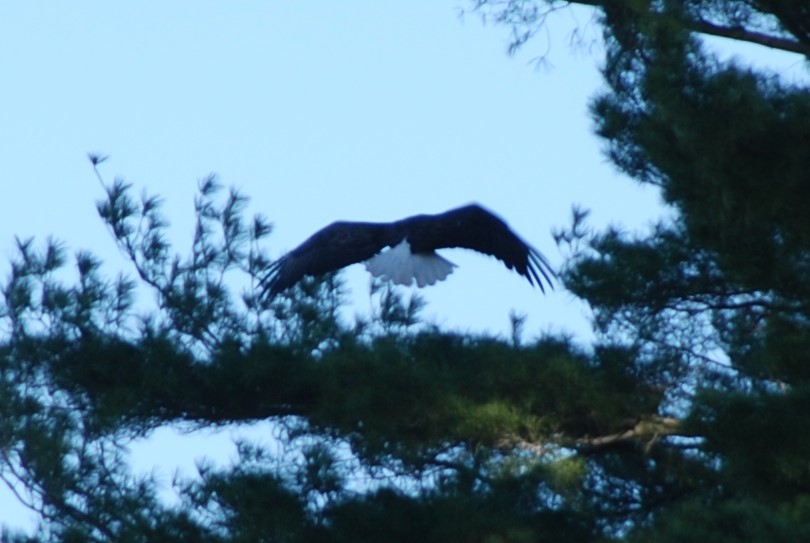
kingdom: Animalia
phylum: Chordata
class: Aves
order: Accipitriformes
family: Accipitridae
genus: Haliaeetus
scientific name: Haliaeetus leucocephalus
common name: Bald eagle
